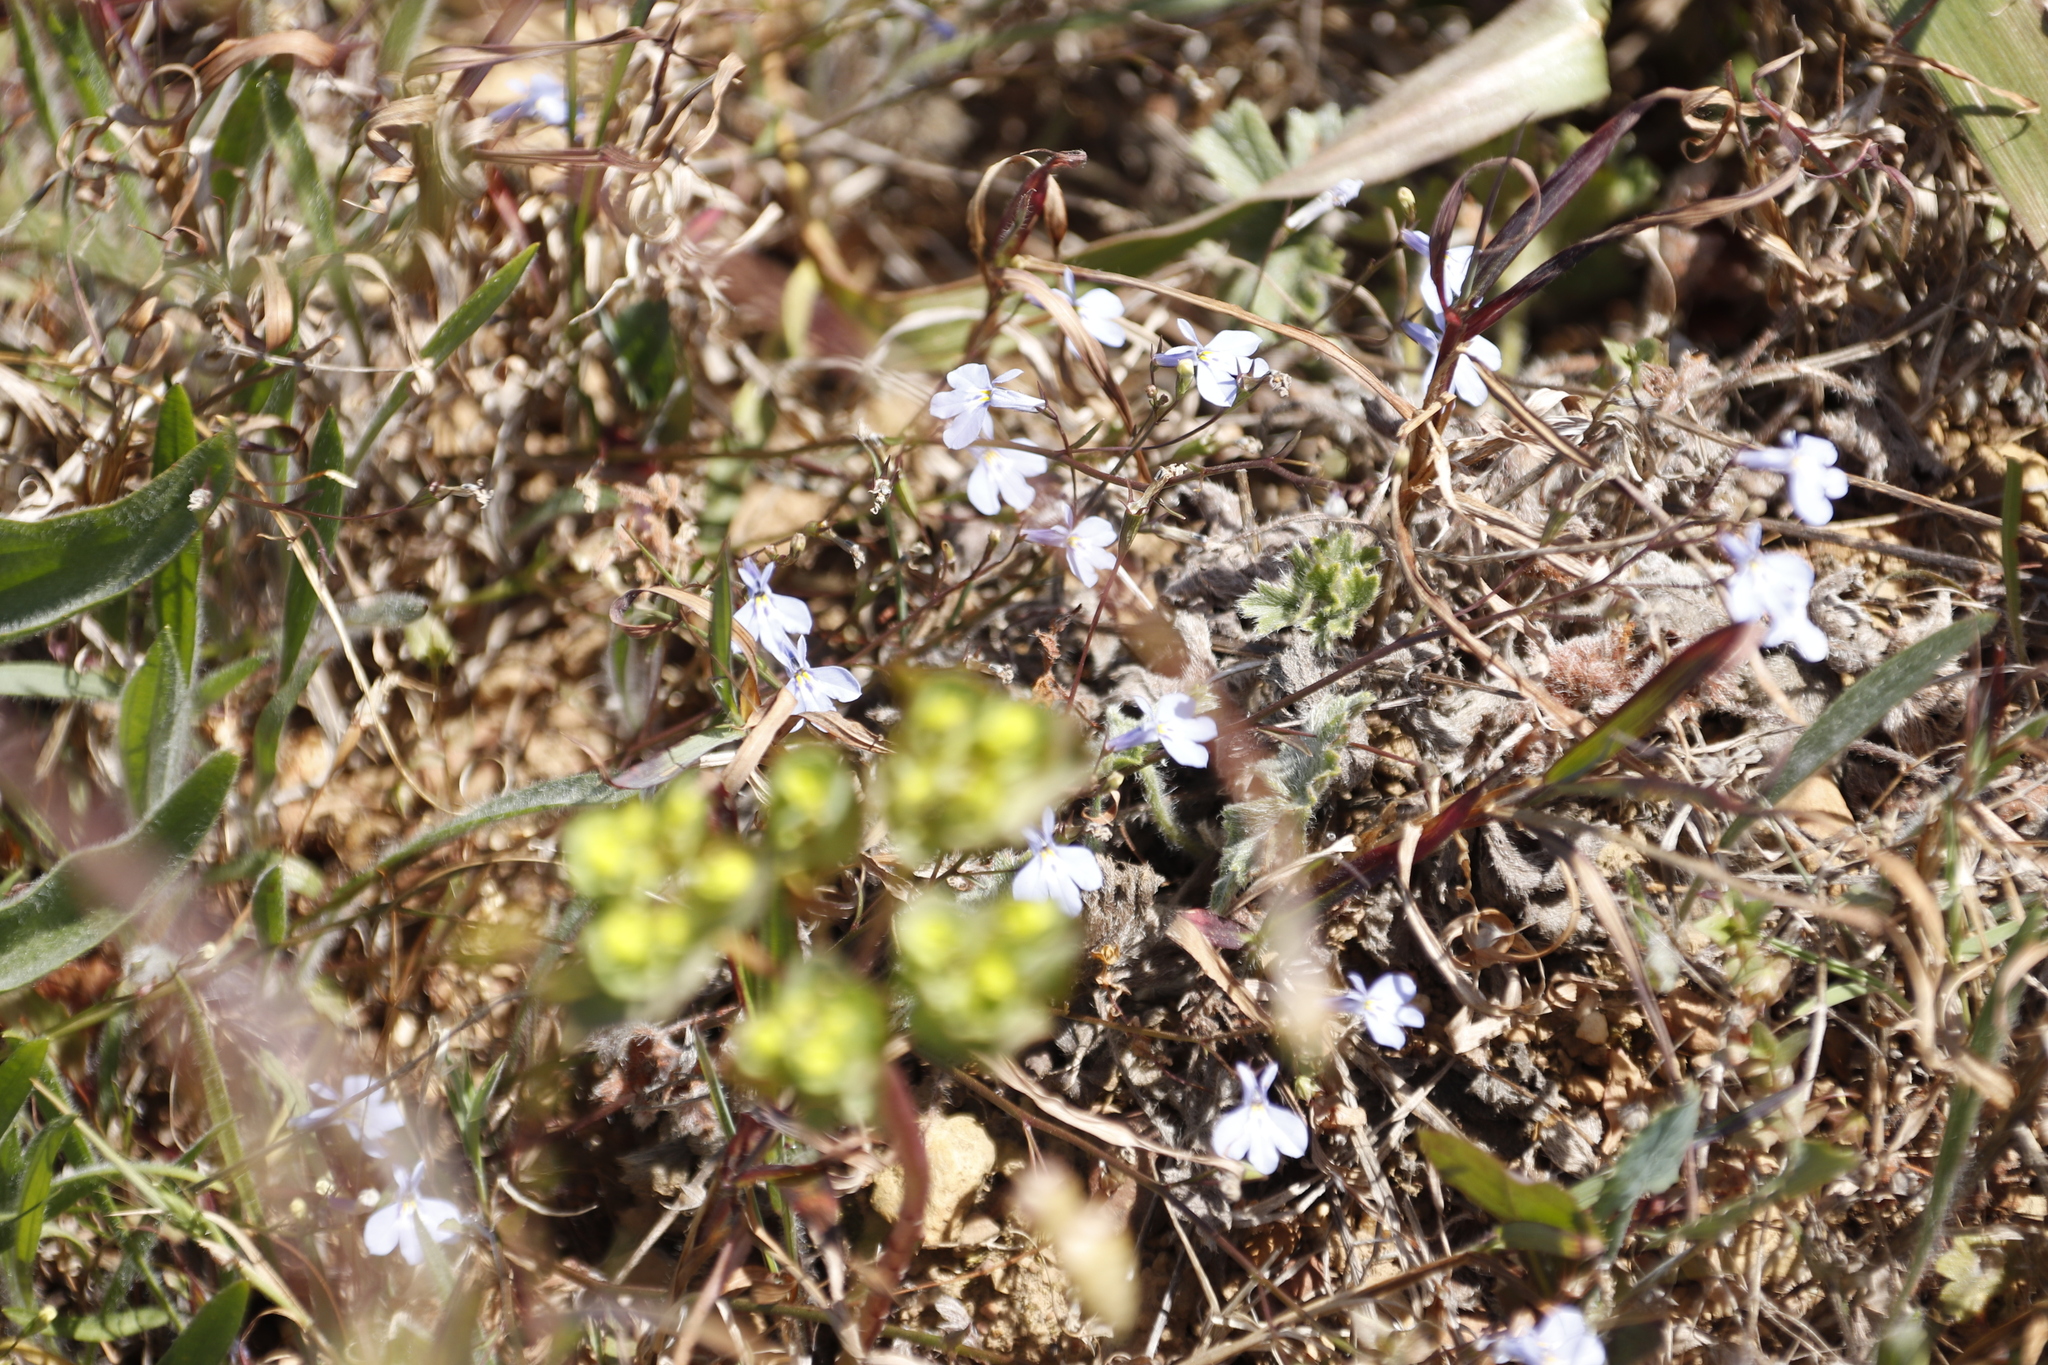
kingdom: Plantae
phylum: Tracheophyta
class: Magnoliopsida
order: Asterales
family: Campanulaceae
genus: Lobelia
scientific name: Lobelia erinus
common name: Edging lobelia
